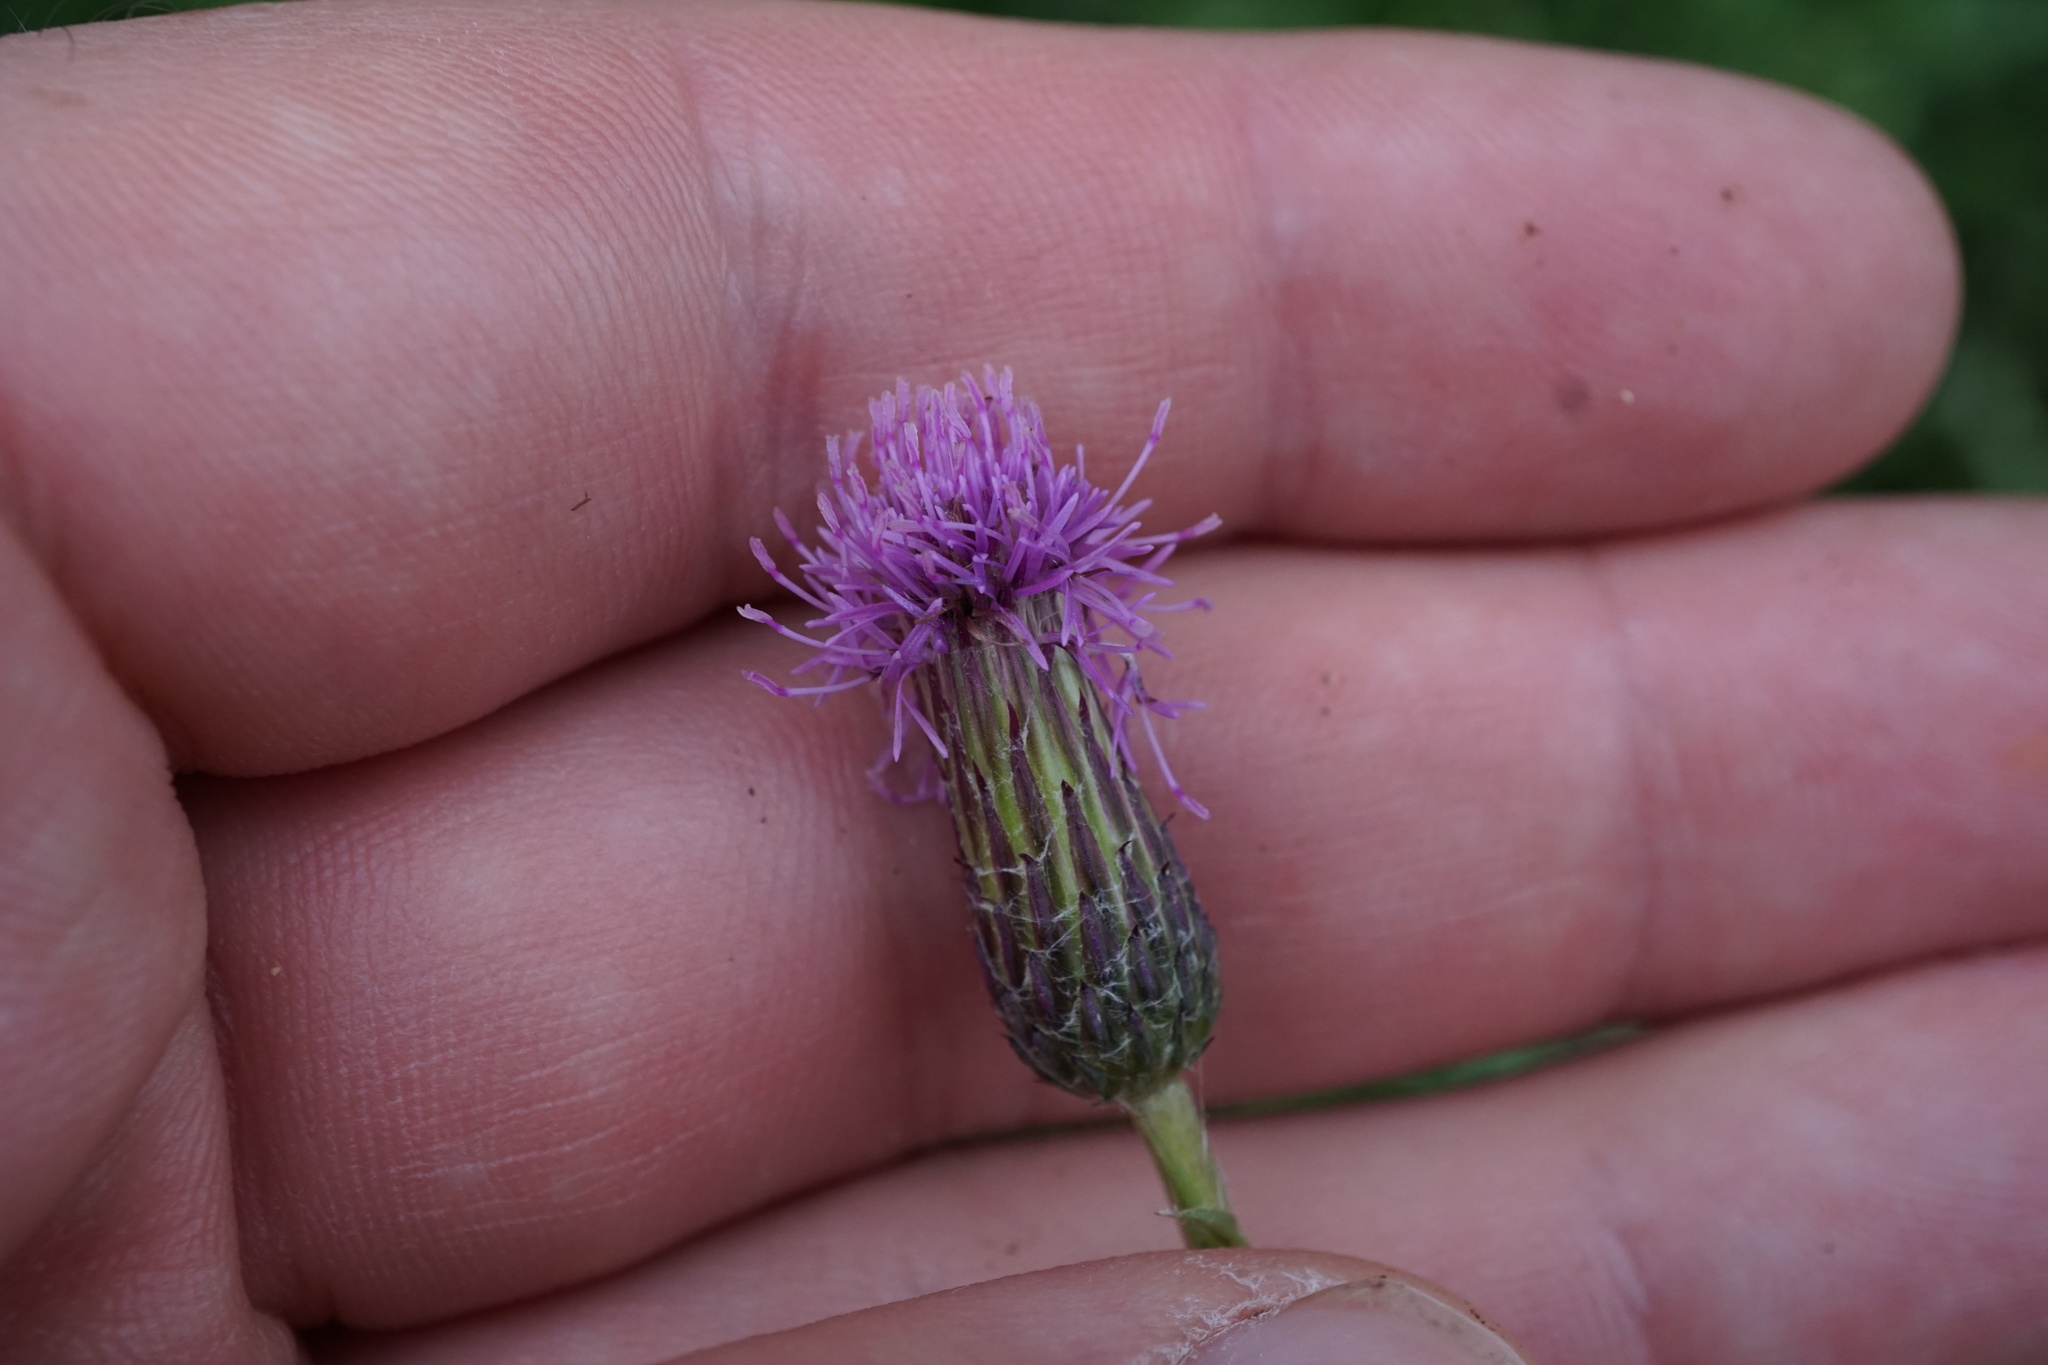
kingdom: Plantae
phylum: Tracheophyta
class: Magnoliopsida
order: Asterales
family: Asteraceae
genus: Cirsium
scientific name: Cirsium arvense
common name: Creeping thistle
